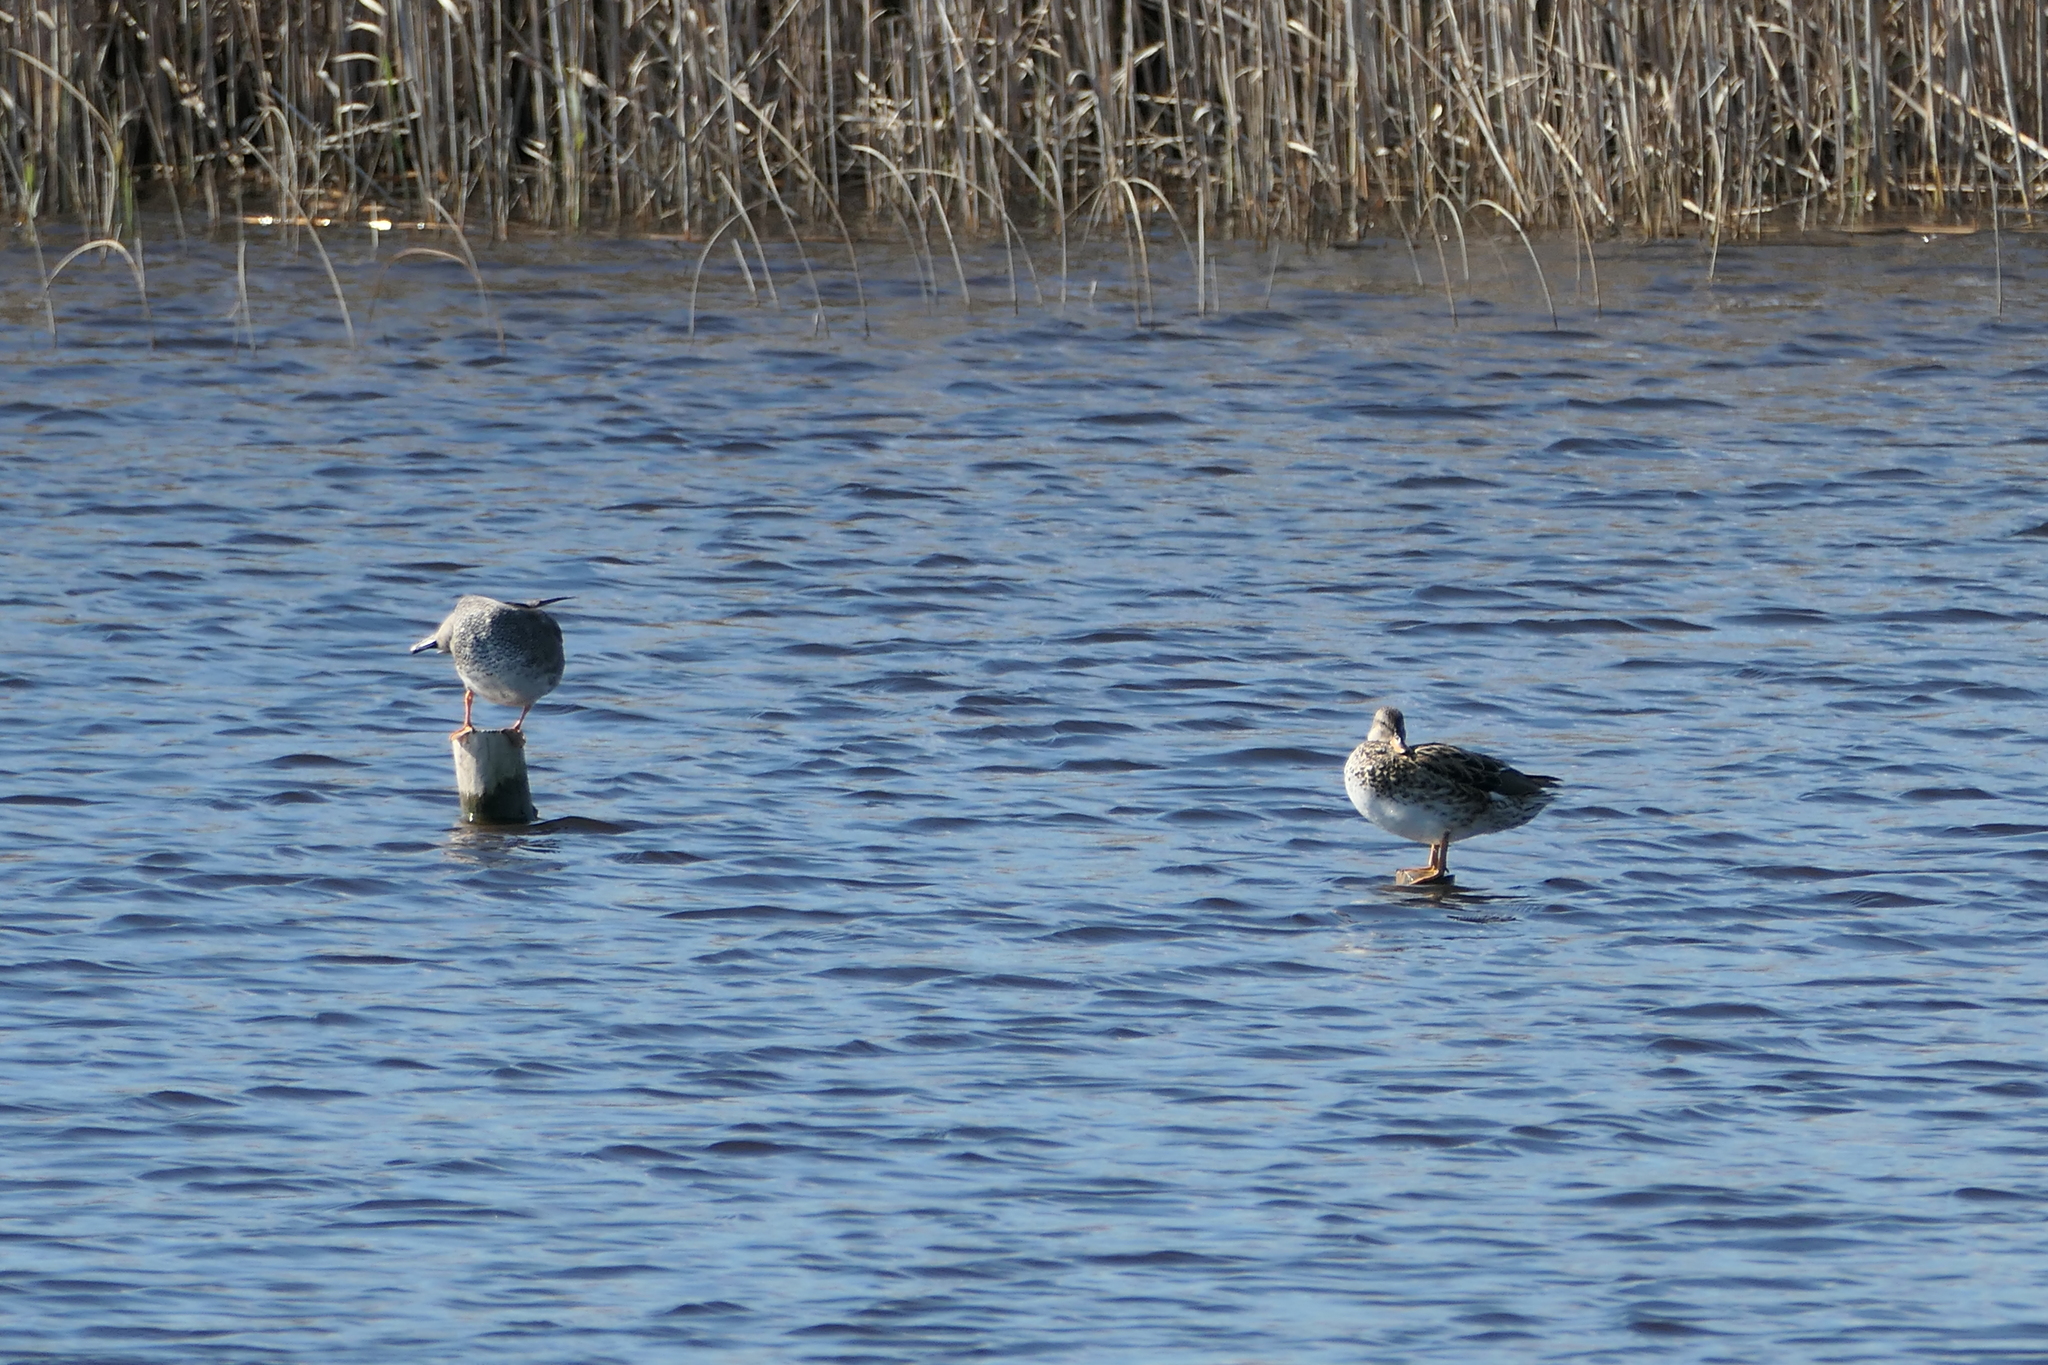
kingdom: Animalia
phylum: Chordata
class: Aves
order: Anseriformes
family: Anatidae
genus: Mareca
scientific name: Mareca strepera
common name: Gadwall
